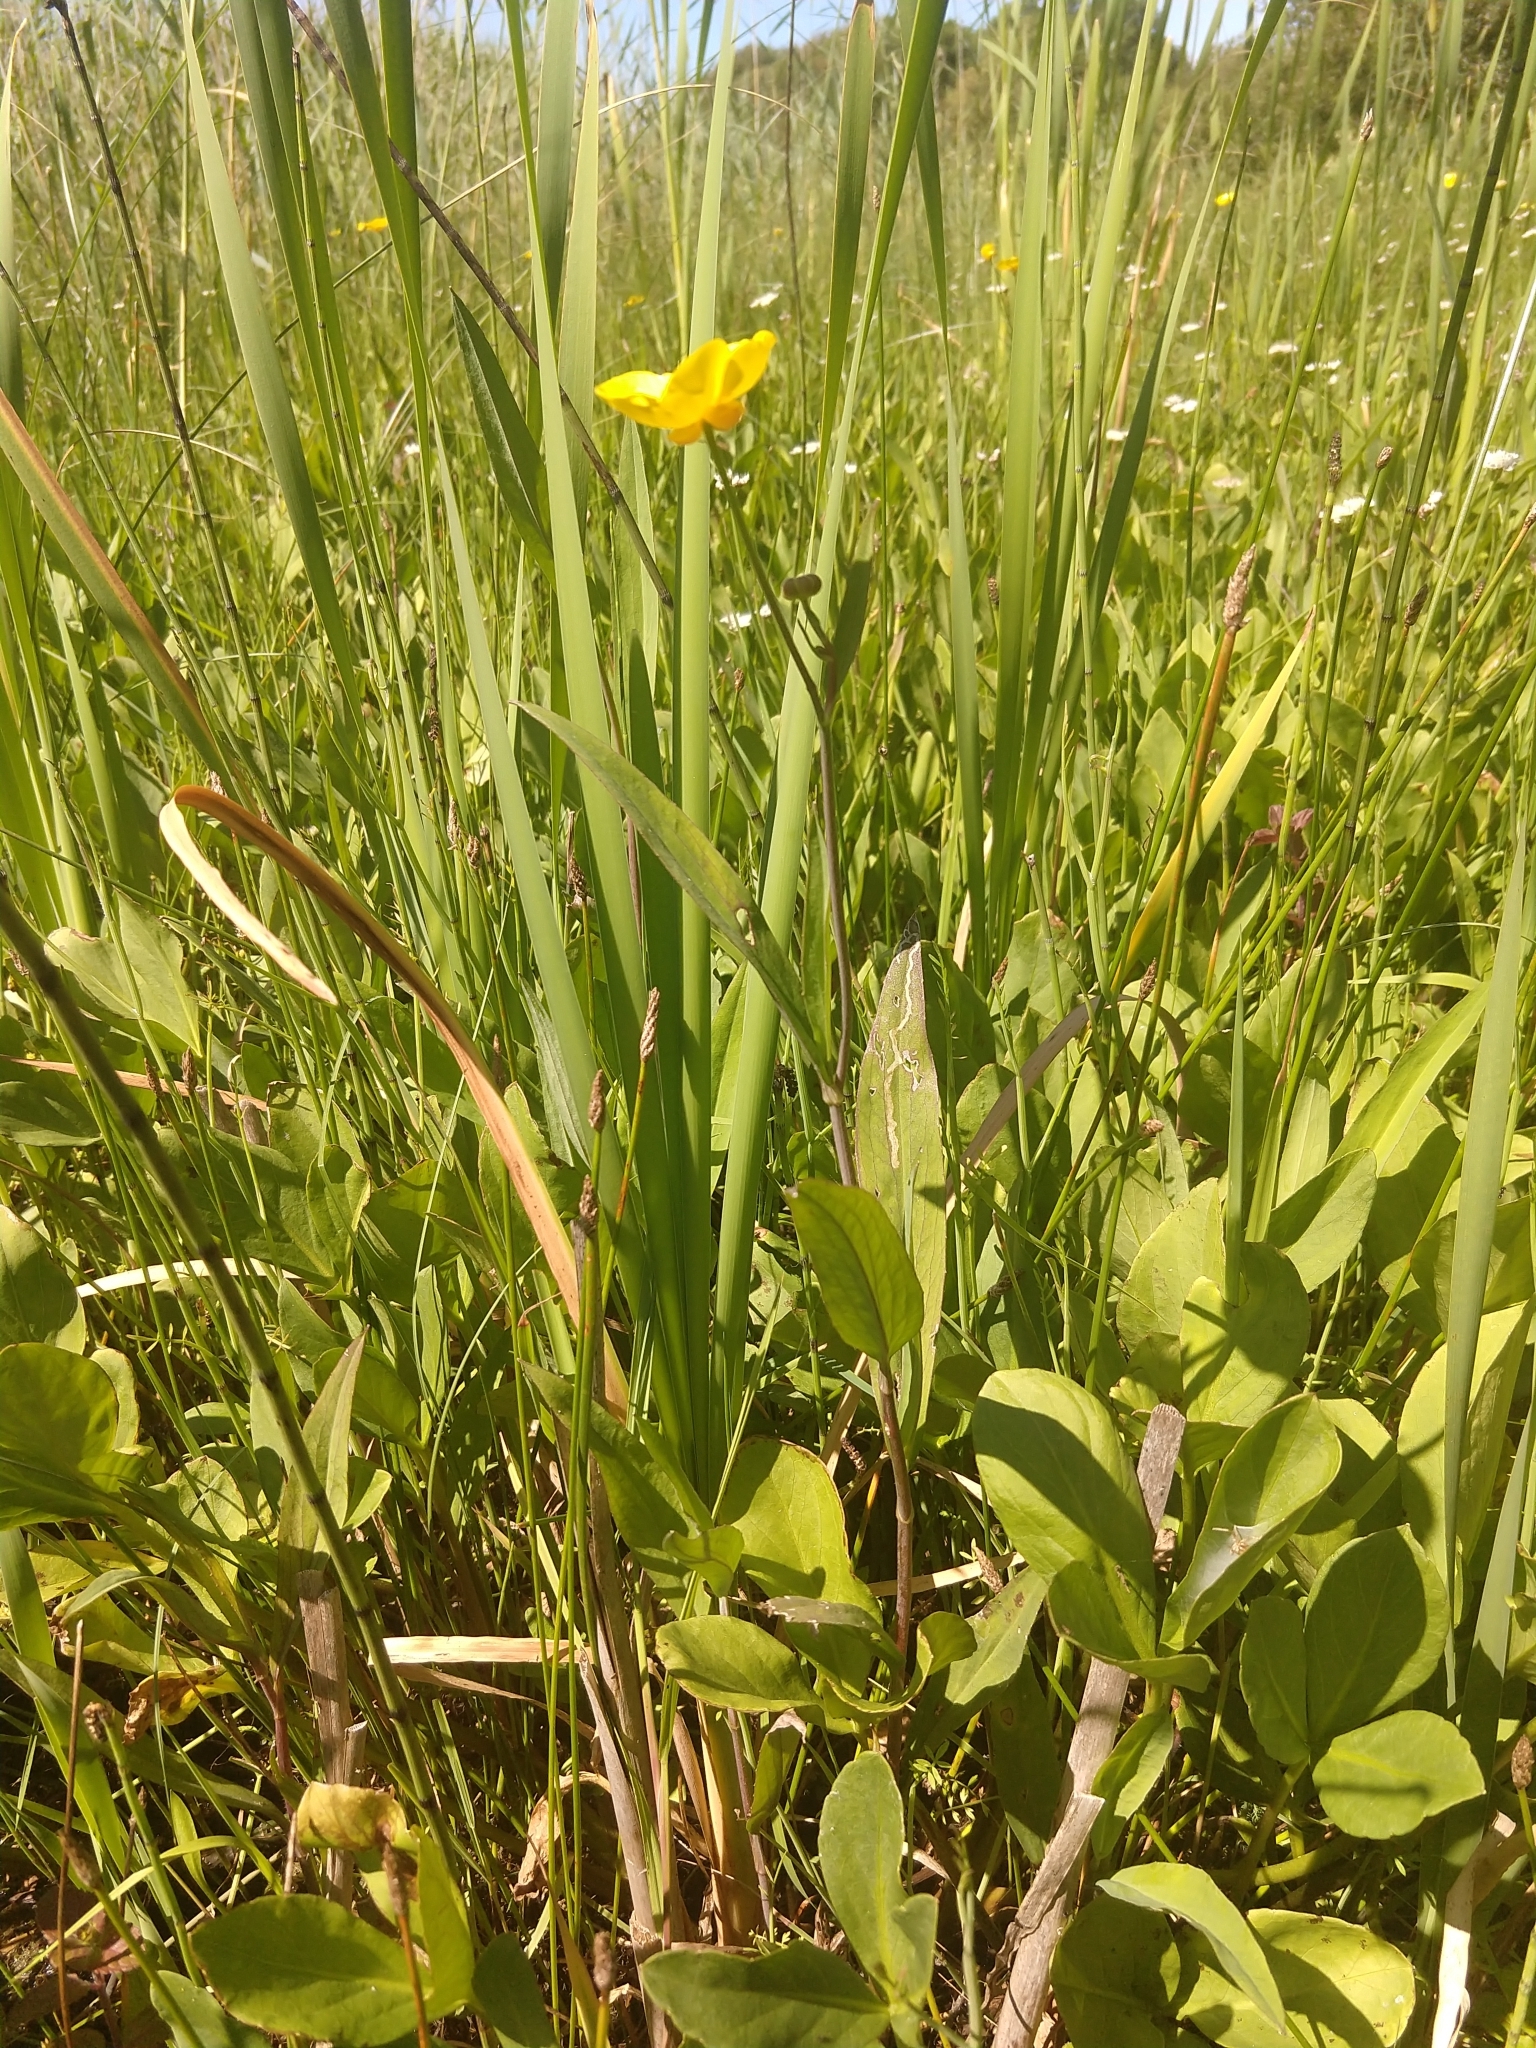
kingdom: Plantae
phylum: Tracheophyta
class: Magnoliopsida
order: Ranunculales
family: Ranunculaceae
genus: Ranunculus
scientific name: Ranunculus lingua
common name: Greater spearwort
